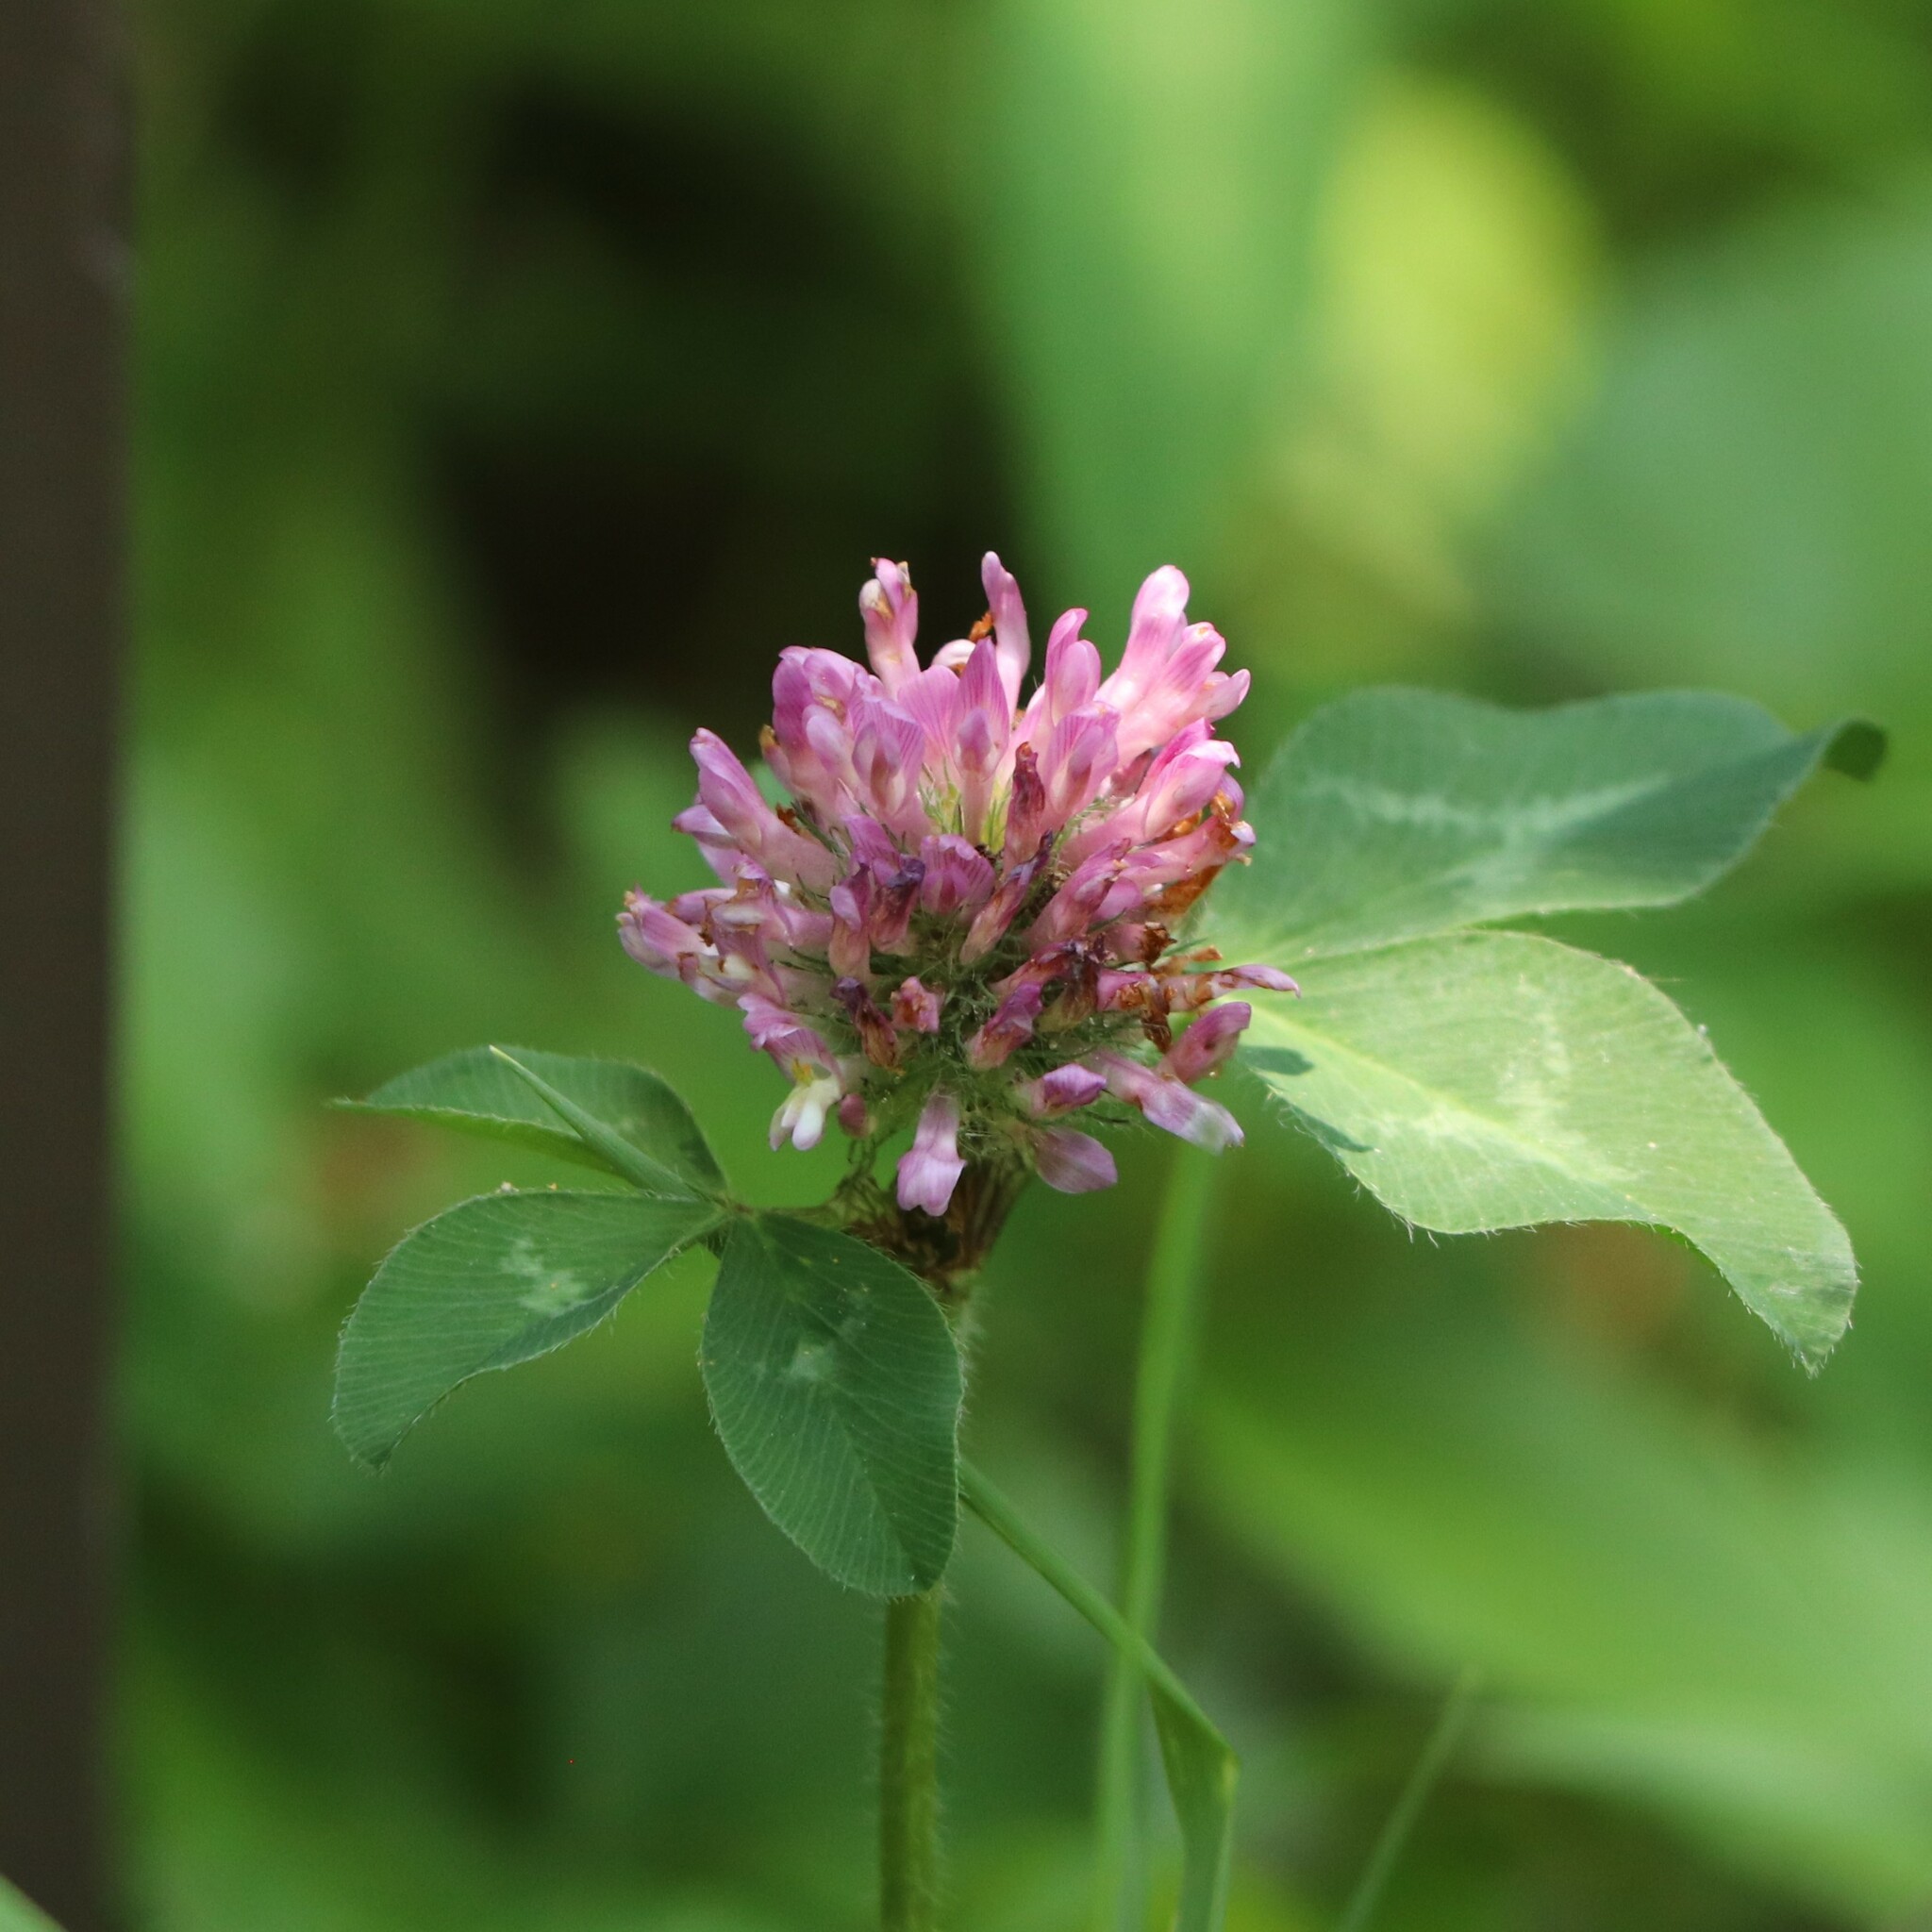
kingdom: Plantae
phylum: Tracheophyta
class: Magnoliopsida
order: Fabales
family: Fabaceae
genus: Trifolium
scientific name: Trifolium pratense
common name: Red clover
